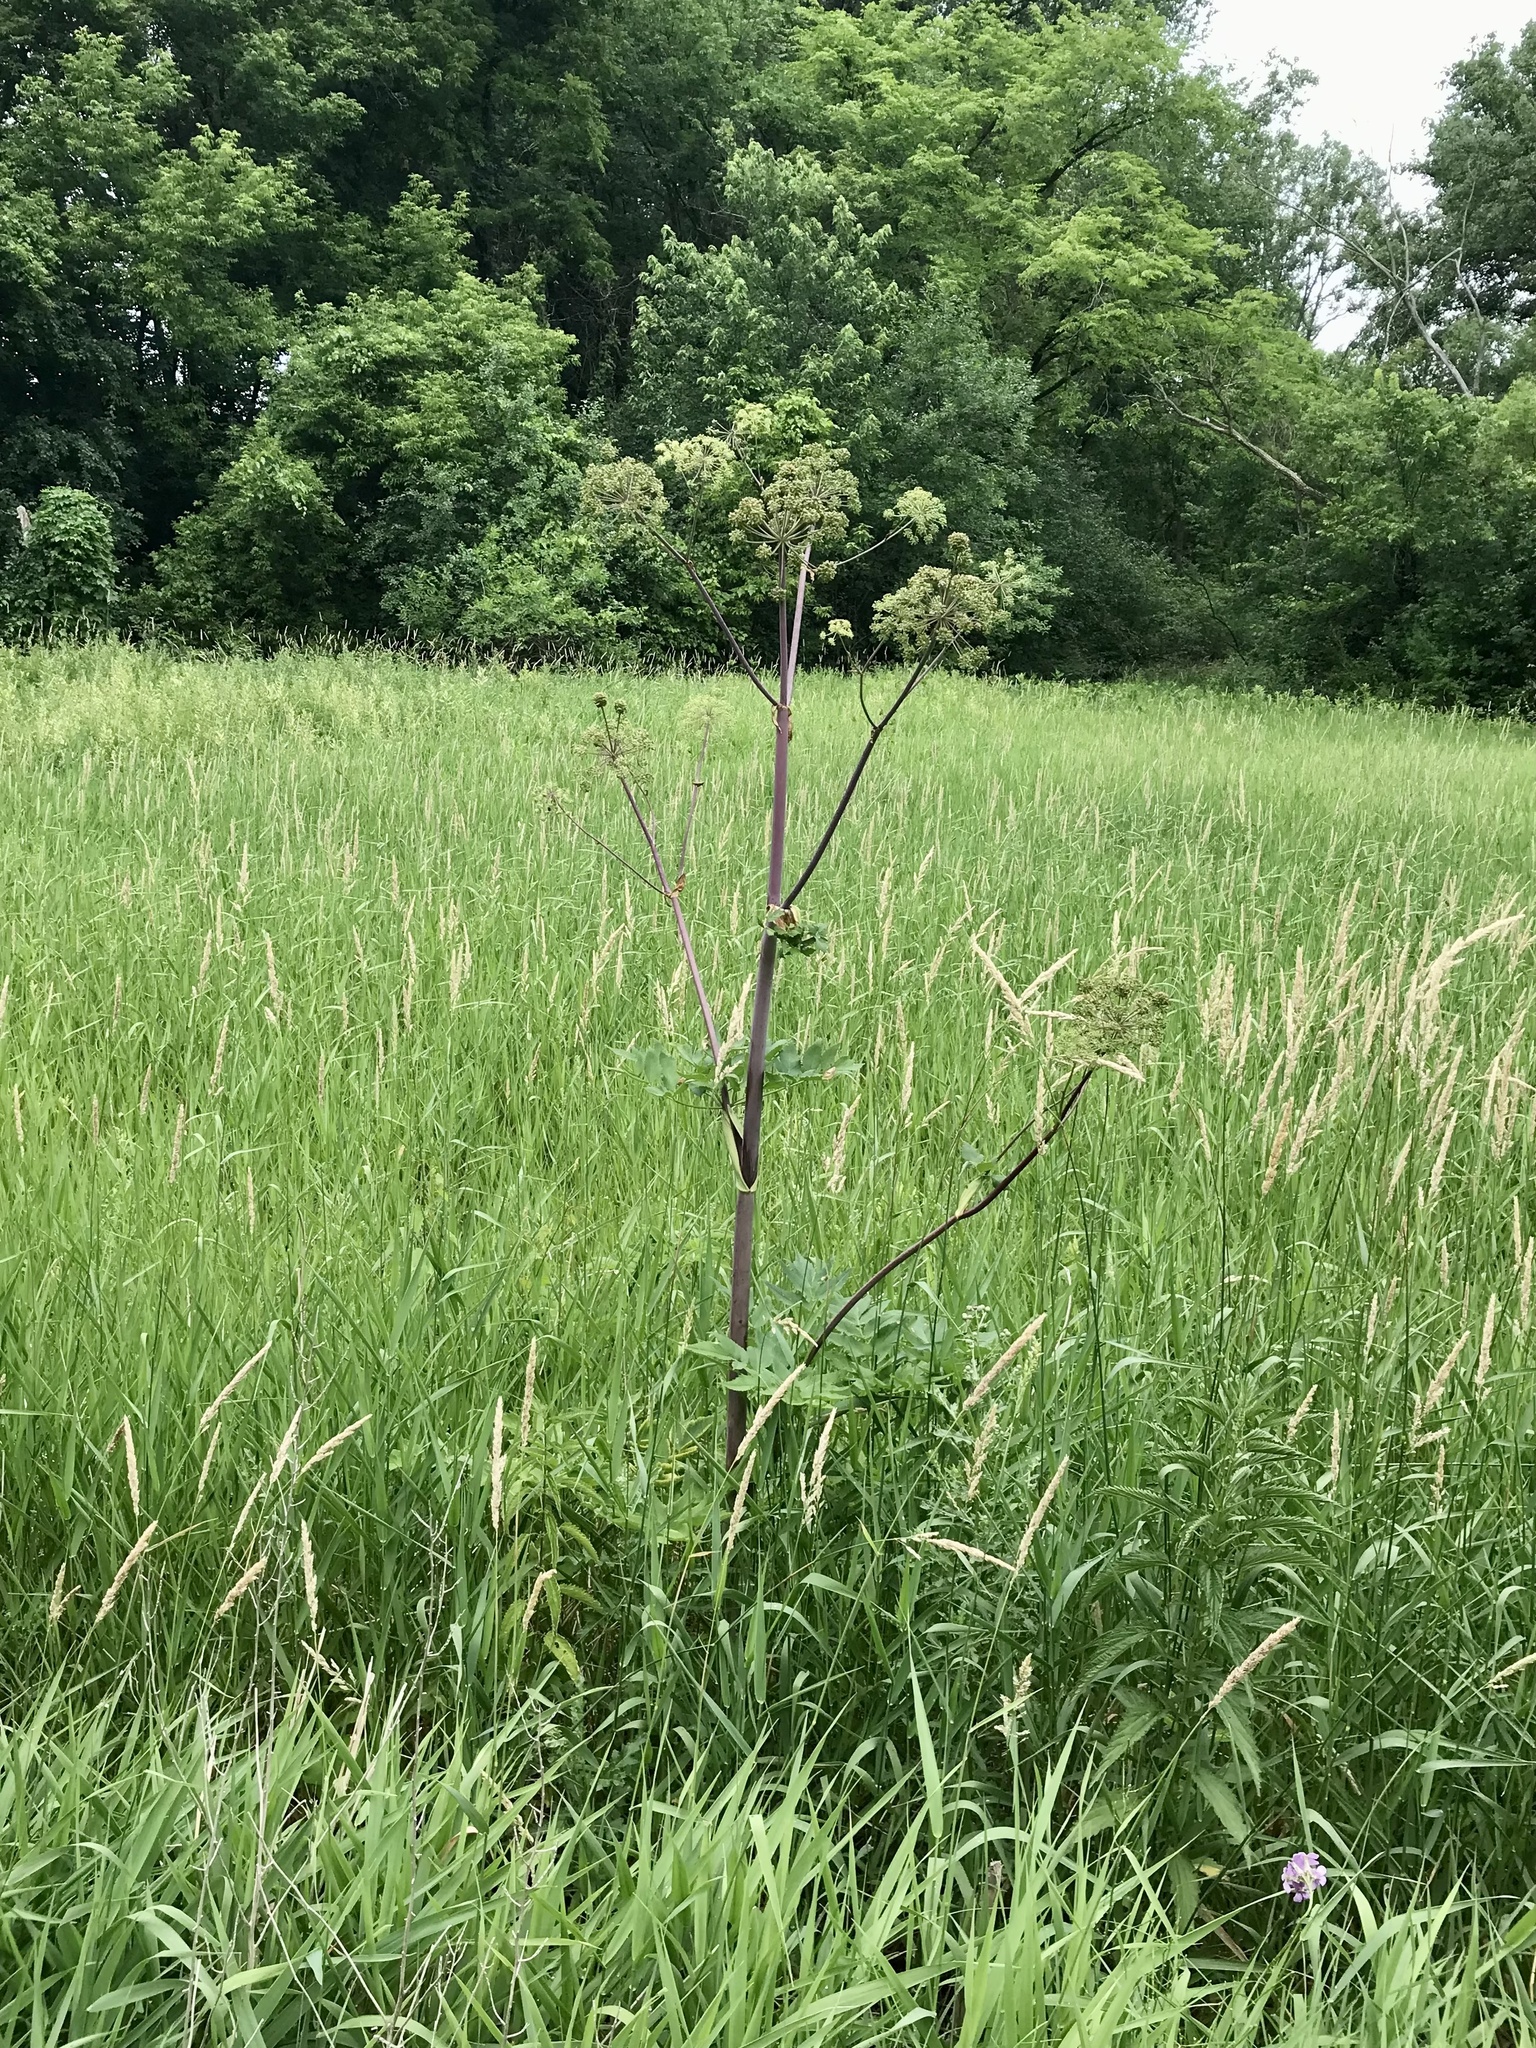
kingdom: Plantae
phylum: Tracheophyta
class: Magnoliopsida
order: Apiales
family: Apiaceae
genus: Angelica
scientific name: Angelica atropurpurea
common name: Great angelica
